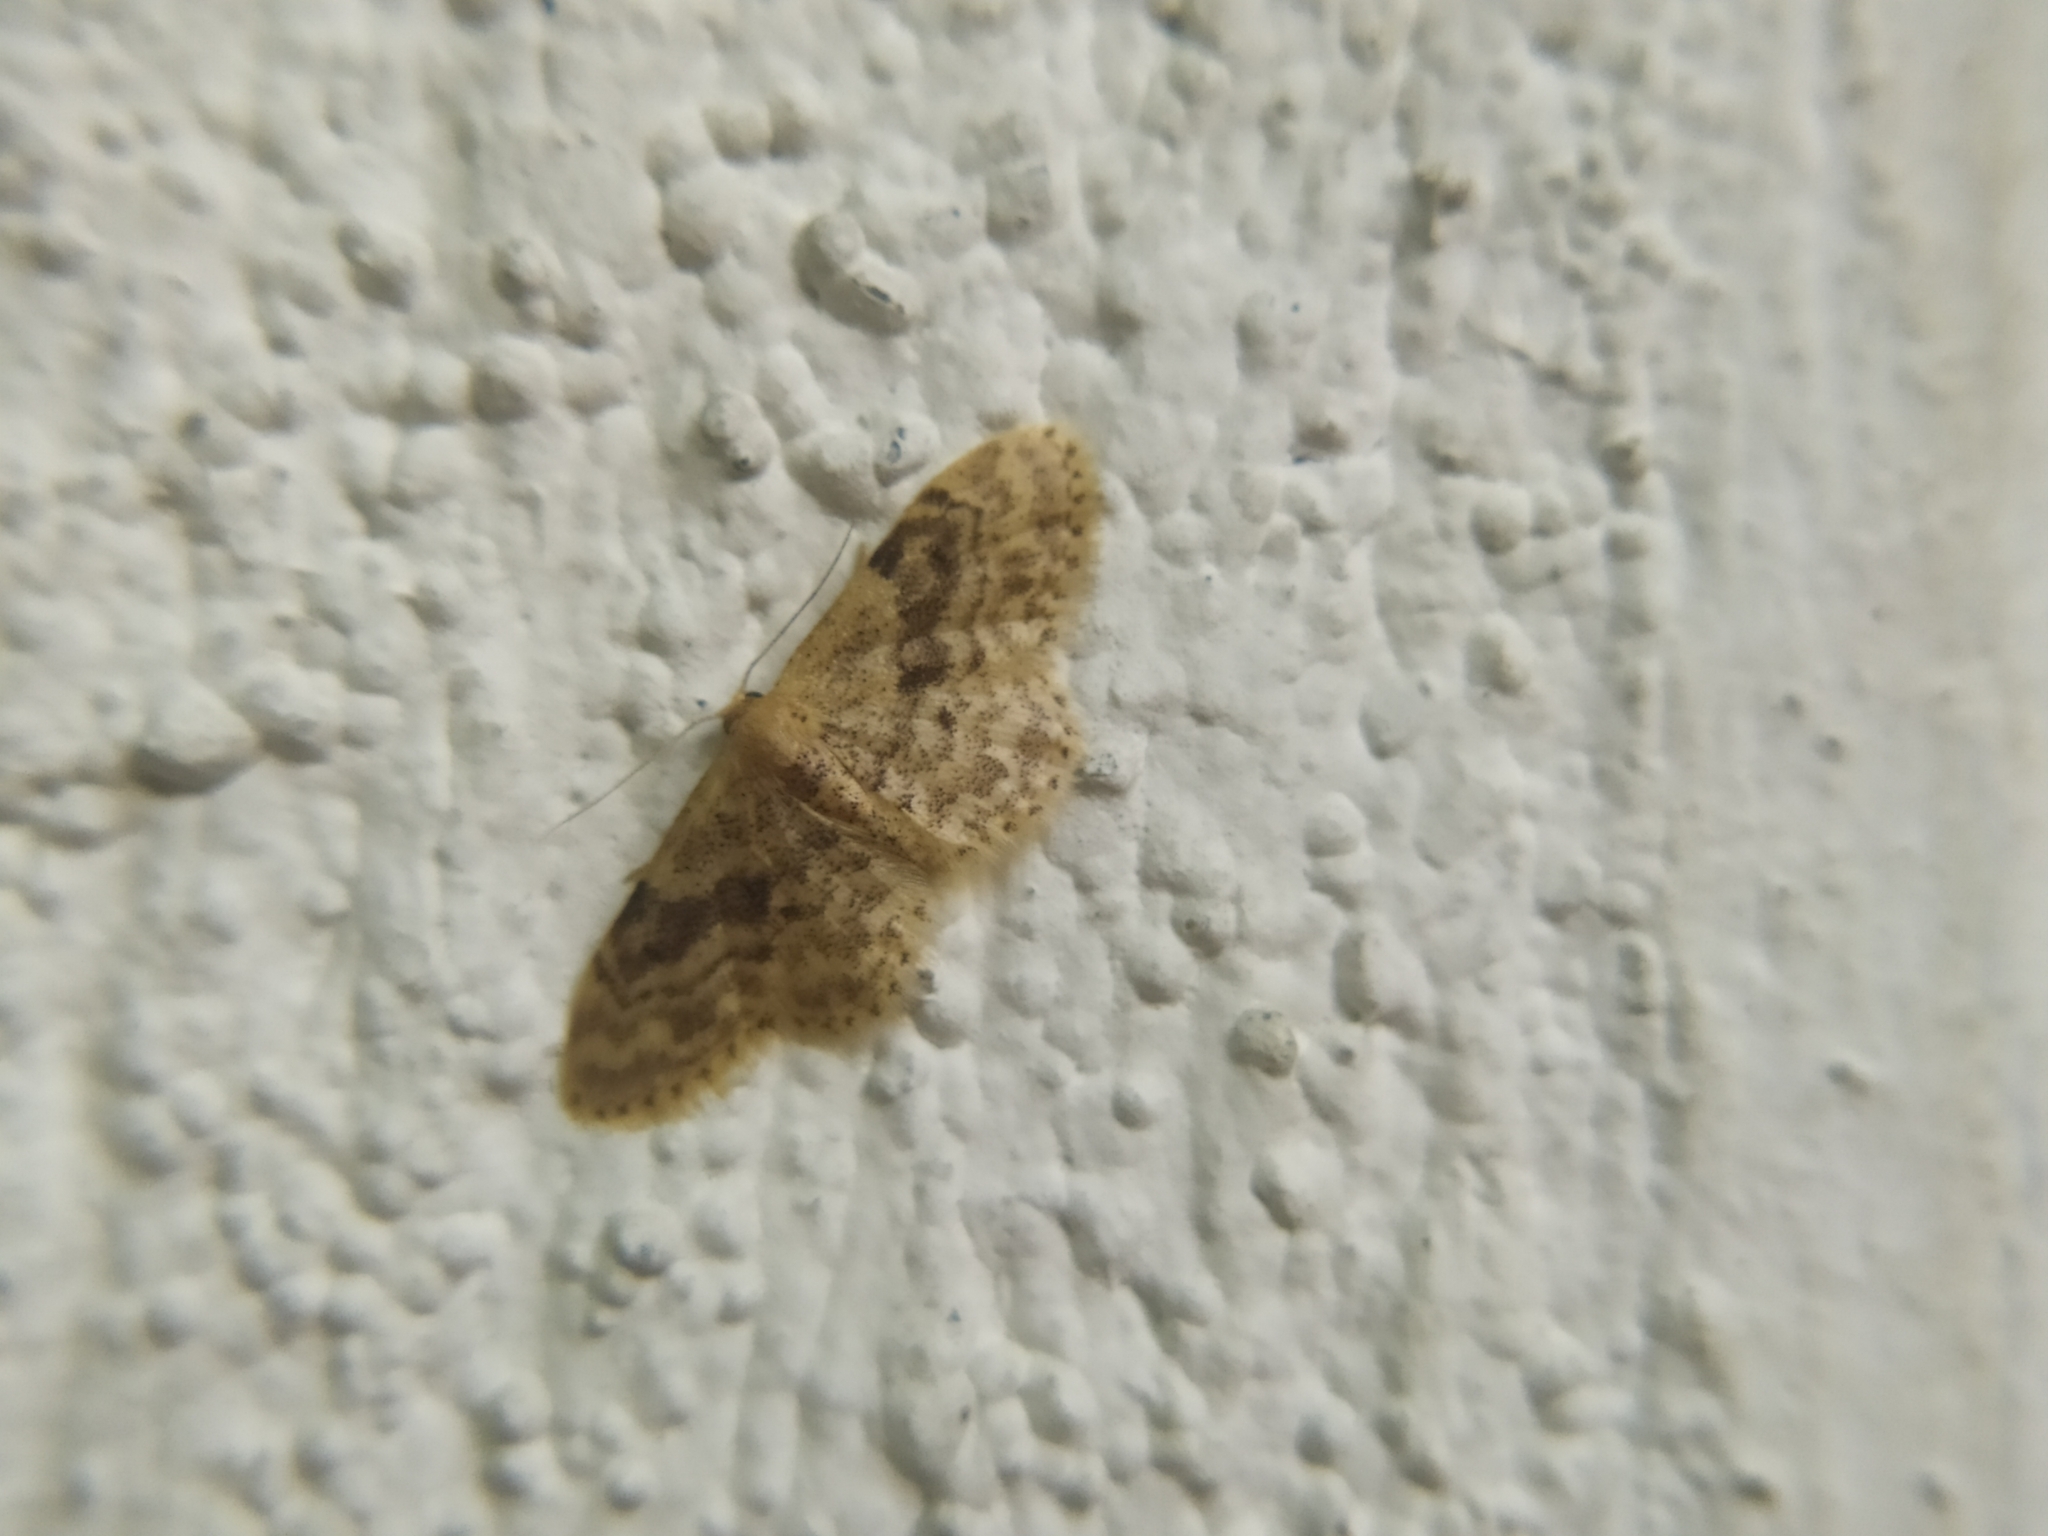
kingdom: Animalia
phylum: Arthropoda
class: Insecta
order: Lepidoptera
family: Geometridae
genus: Idaea
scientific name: Idaea inquinata
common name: Rusty wave
